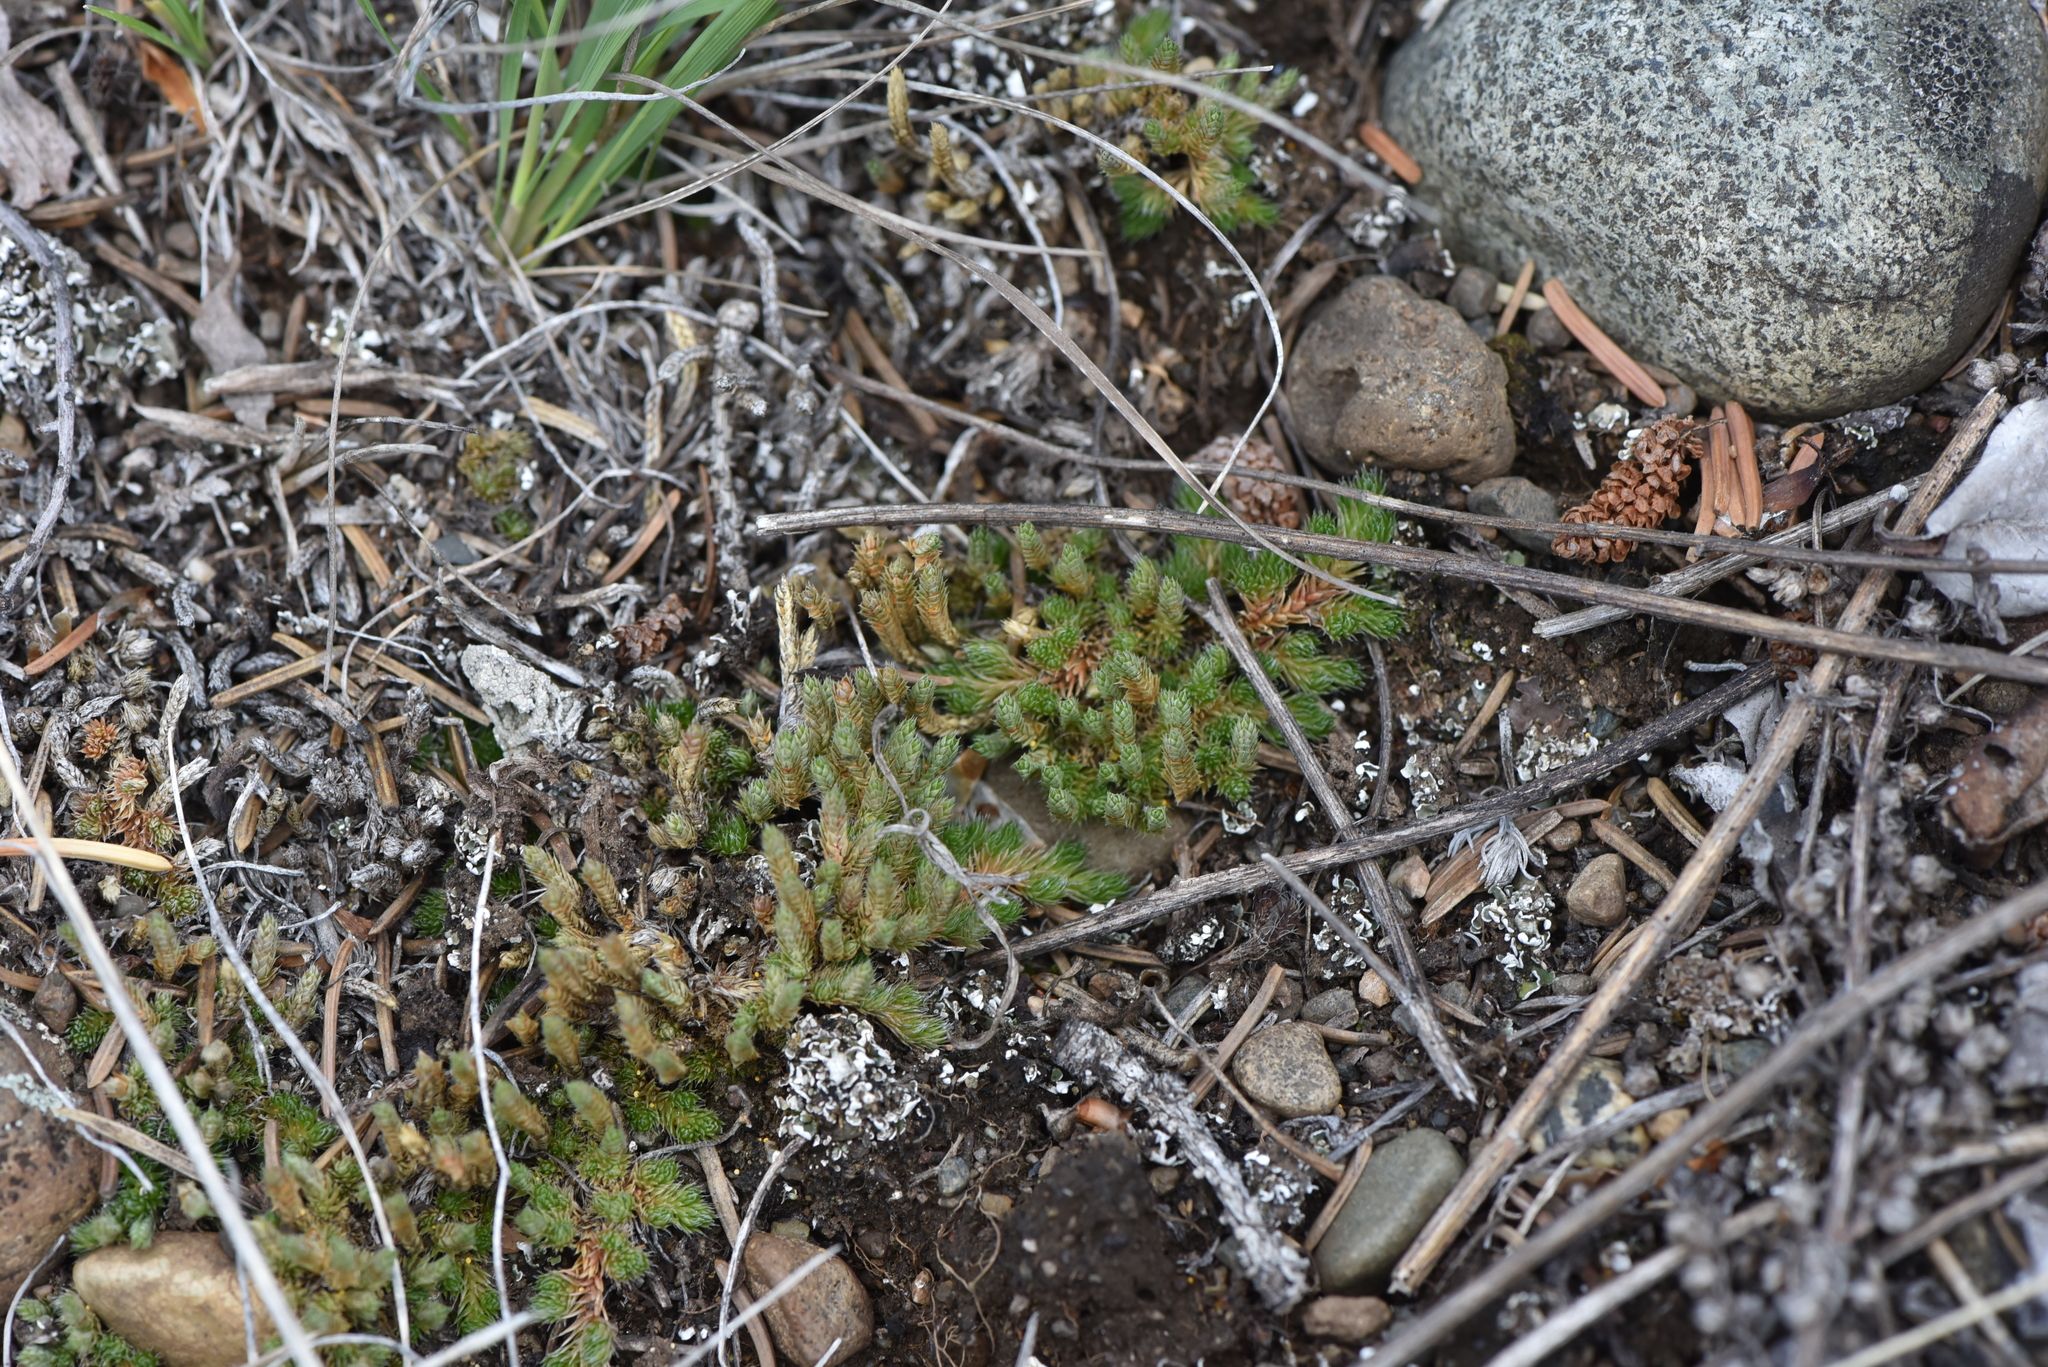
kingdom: Plantae
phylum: Tracheophyta
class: Lycopodiopsida
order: Selaginellales
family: Selaginellaceae
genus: Selaginella
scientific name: Selaginella densa
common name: Mountain spike-moss
